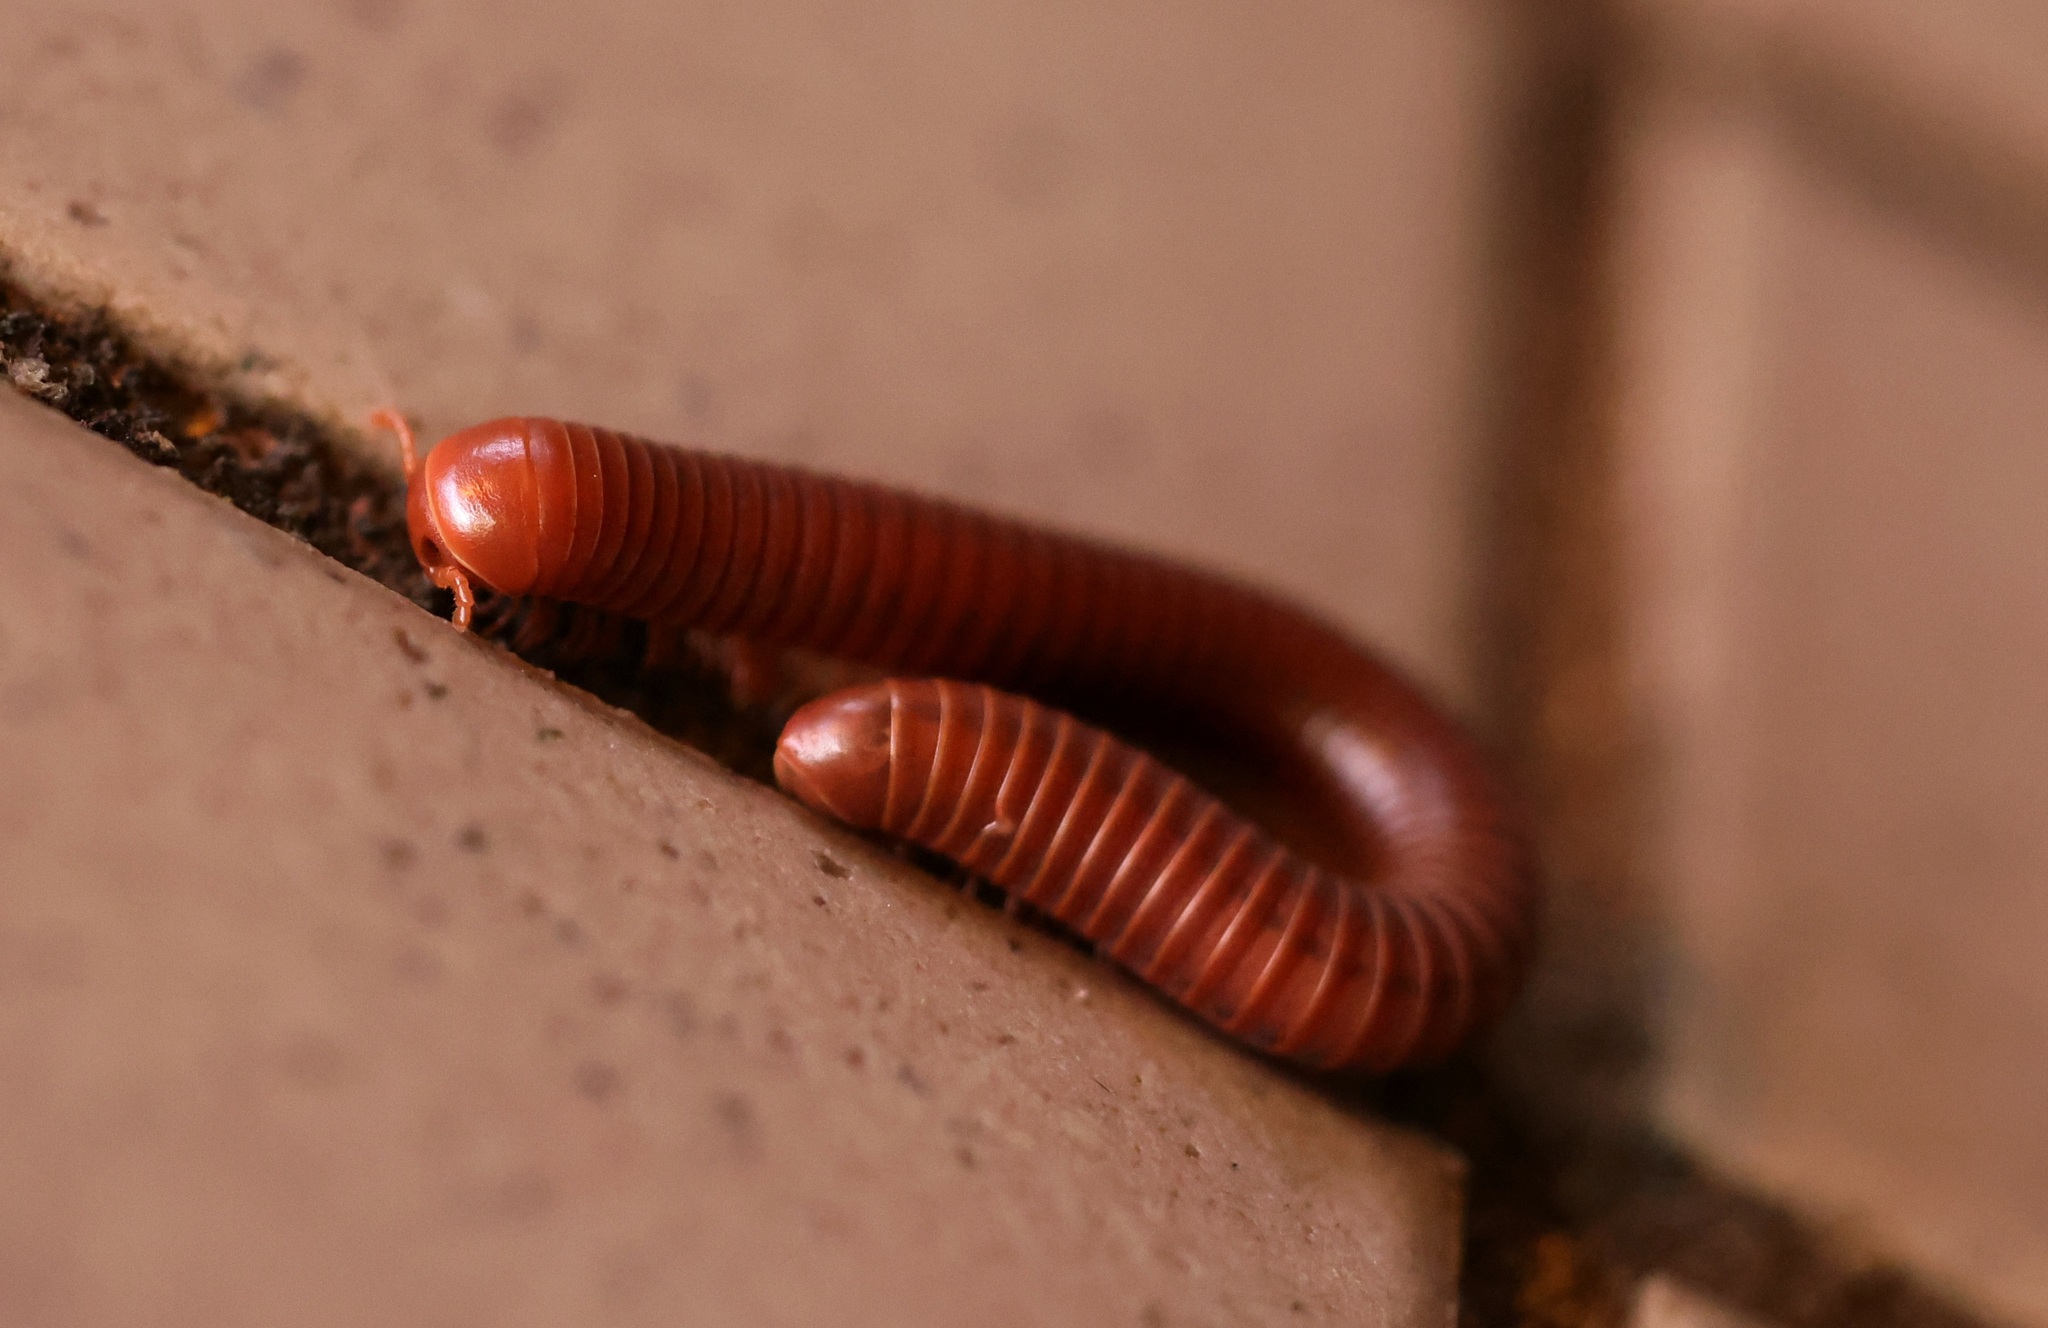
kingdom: Animalia
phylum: Arthropoda
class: Diplopoda
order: Spirobolida
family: Pachybolidae
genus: Trigoniulus
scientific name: Trigoniulus corallinus
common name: Millipede
